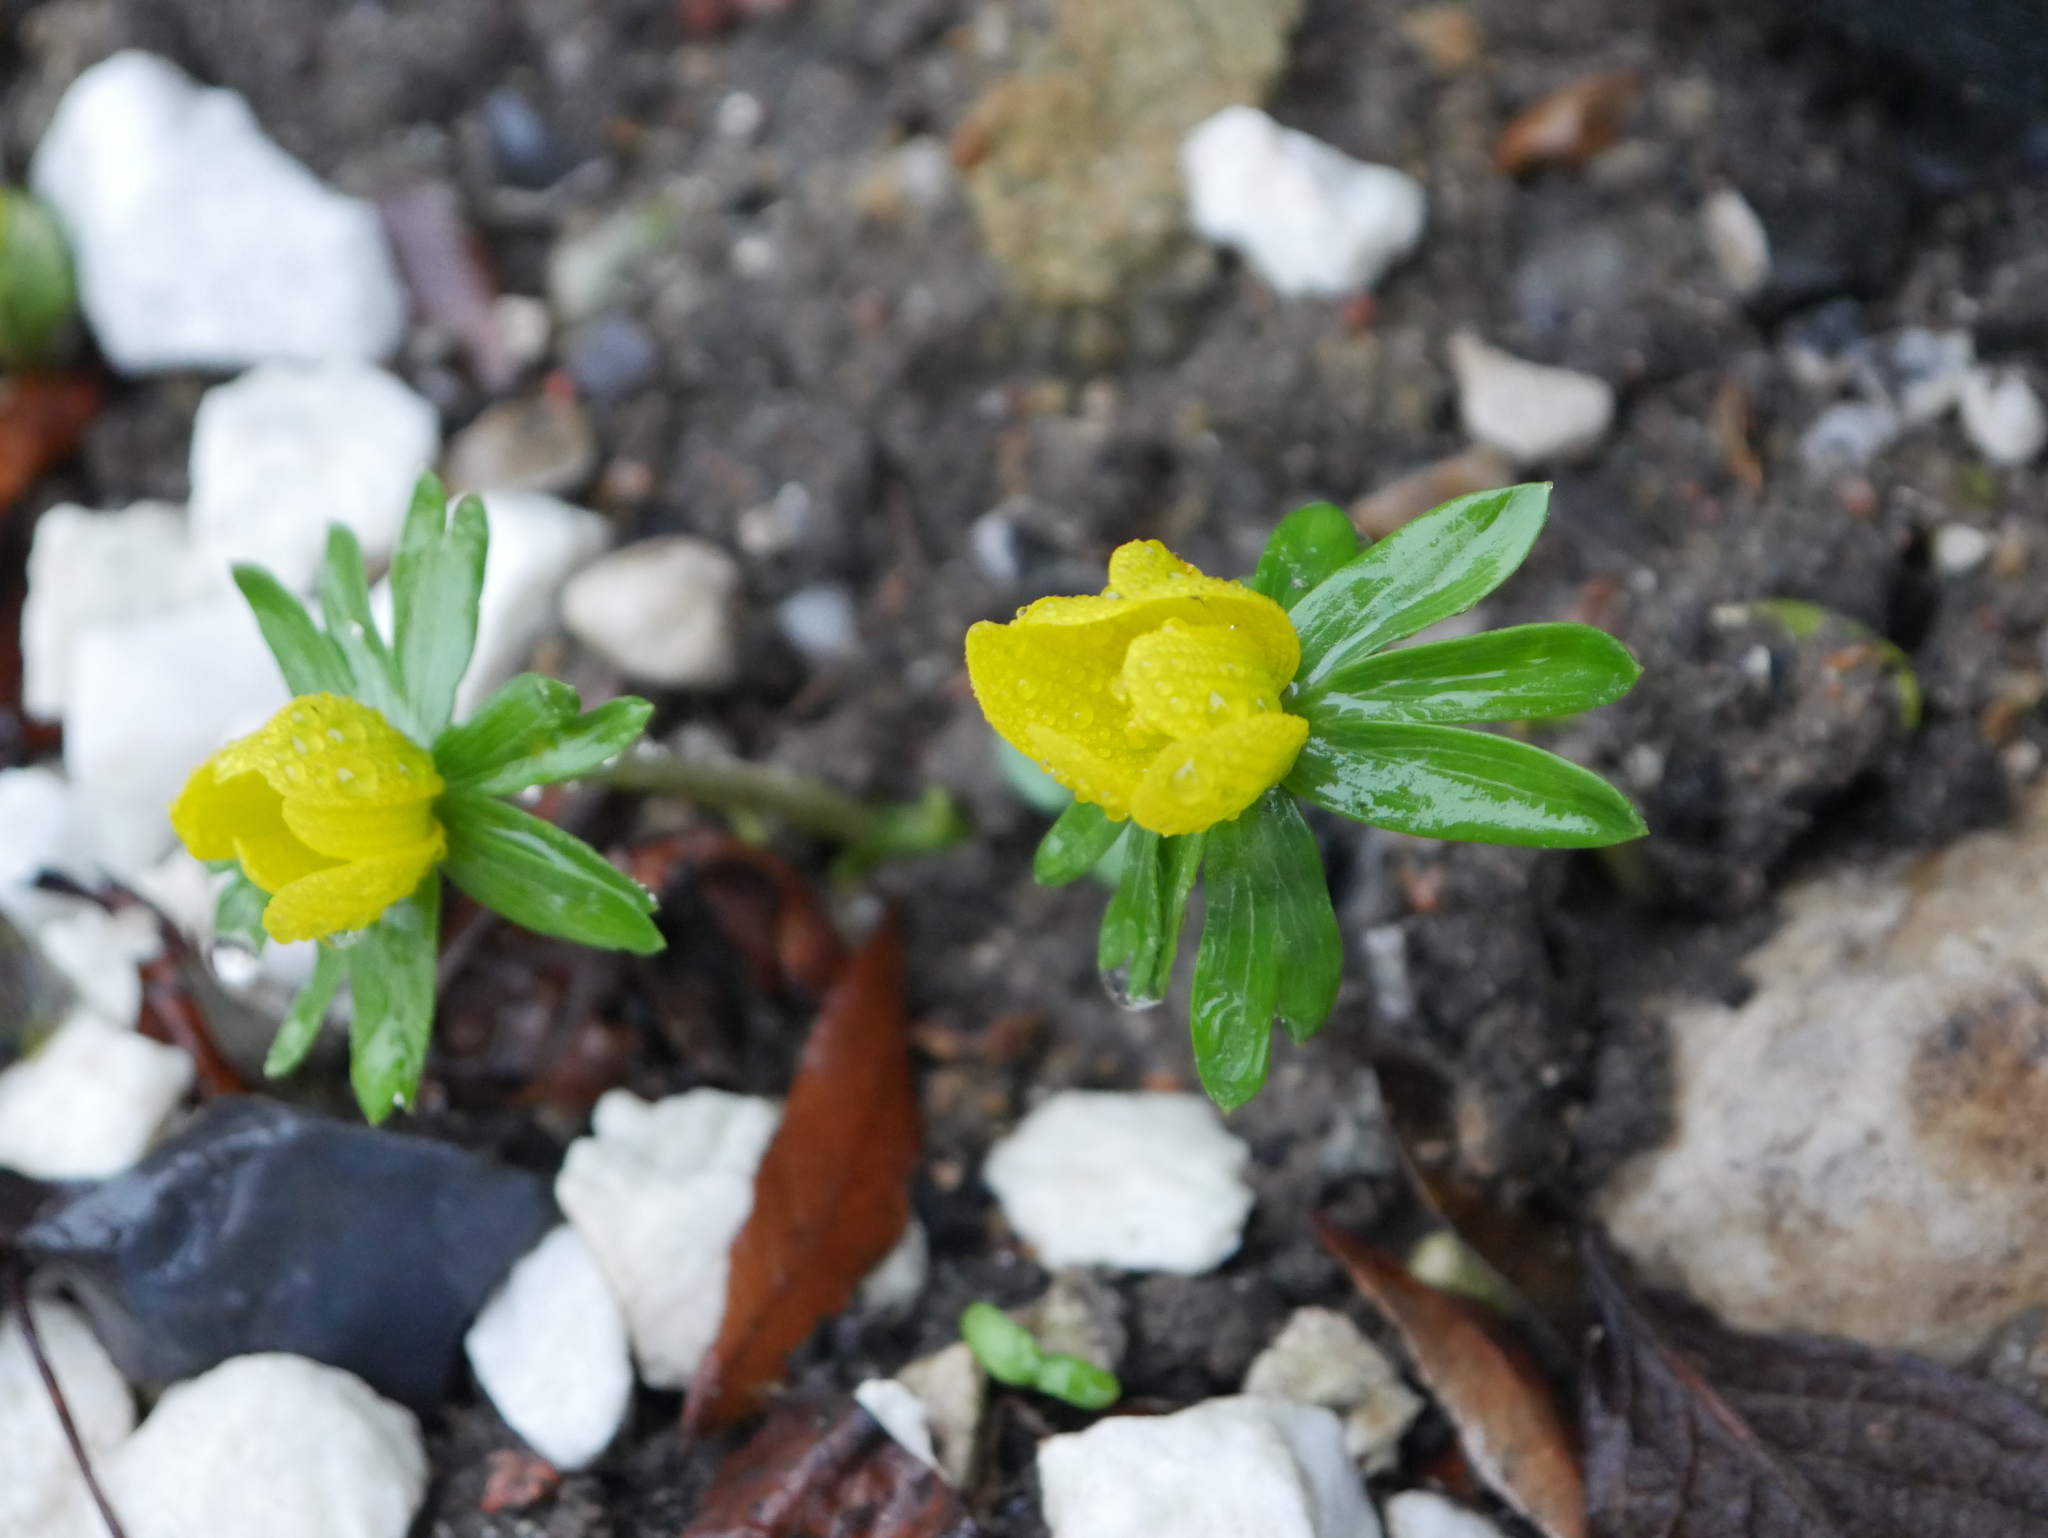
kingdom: Plantae
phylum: Tracheophyta
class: Magnoliopsida
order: Ranunculales
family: Ranunculaceae
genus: Eranthis
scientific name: Eranthis hyemalis
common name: Winter aconite
